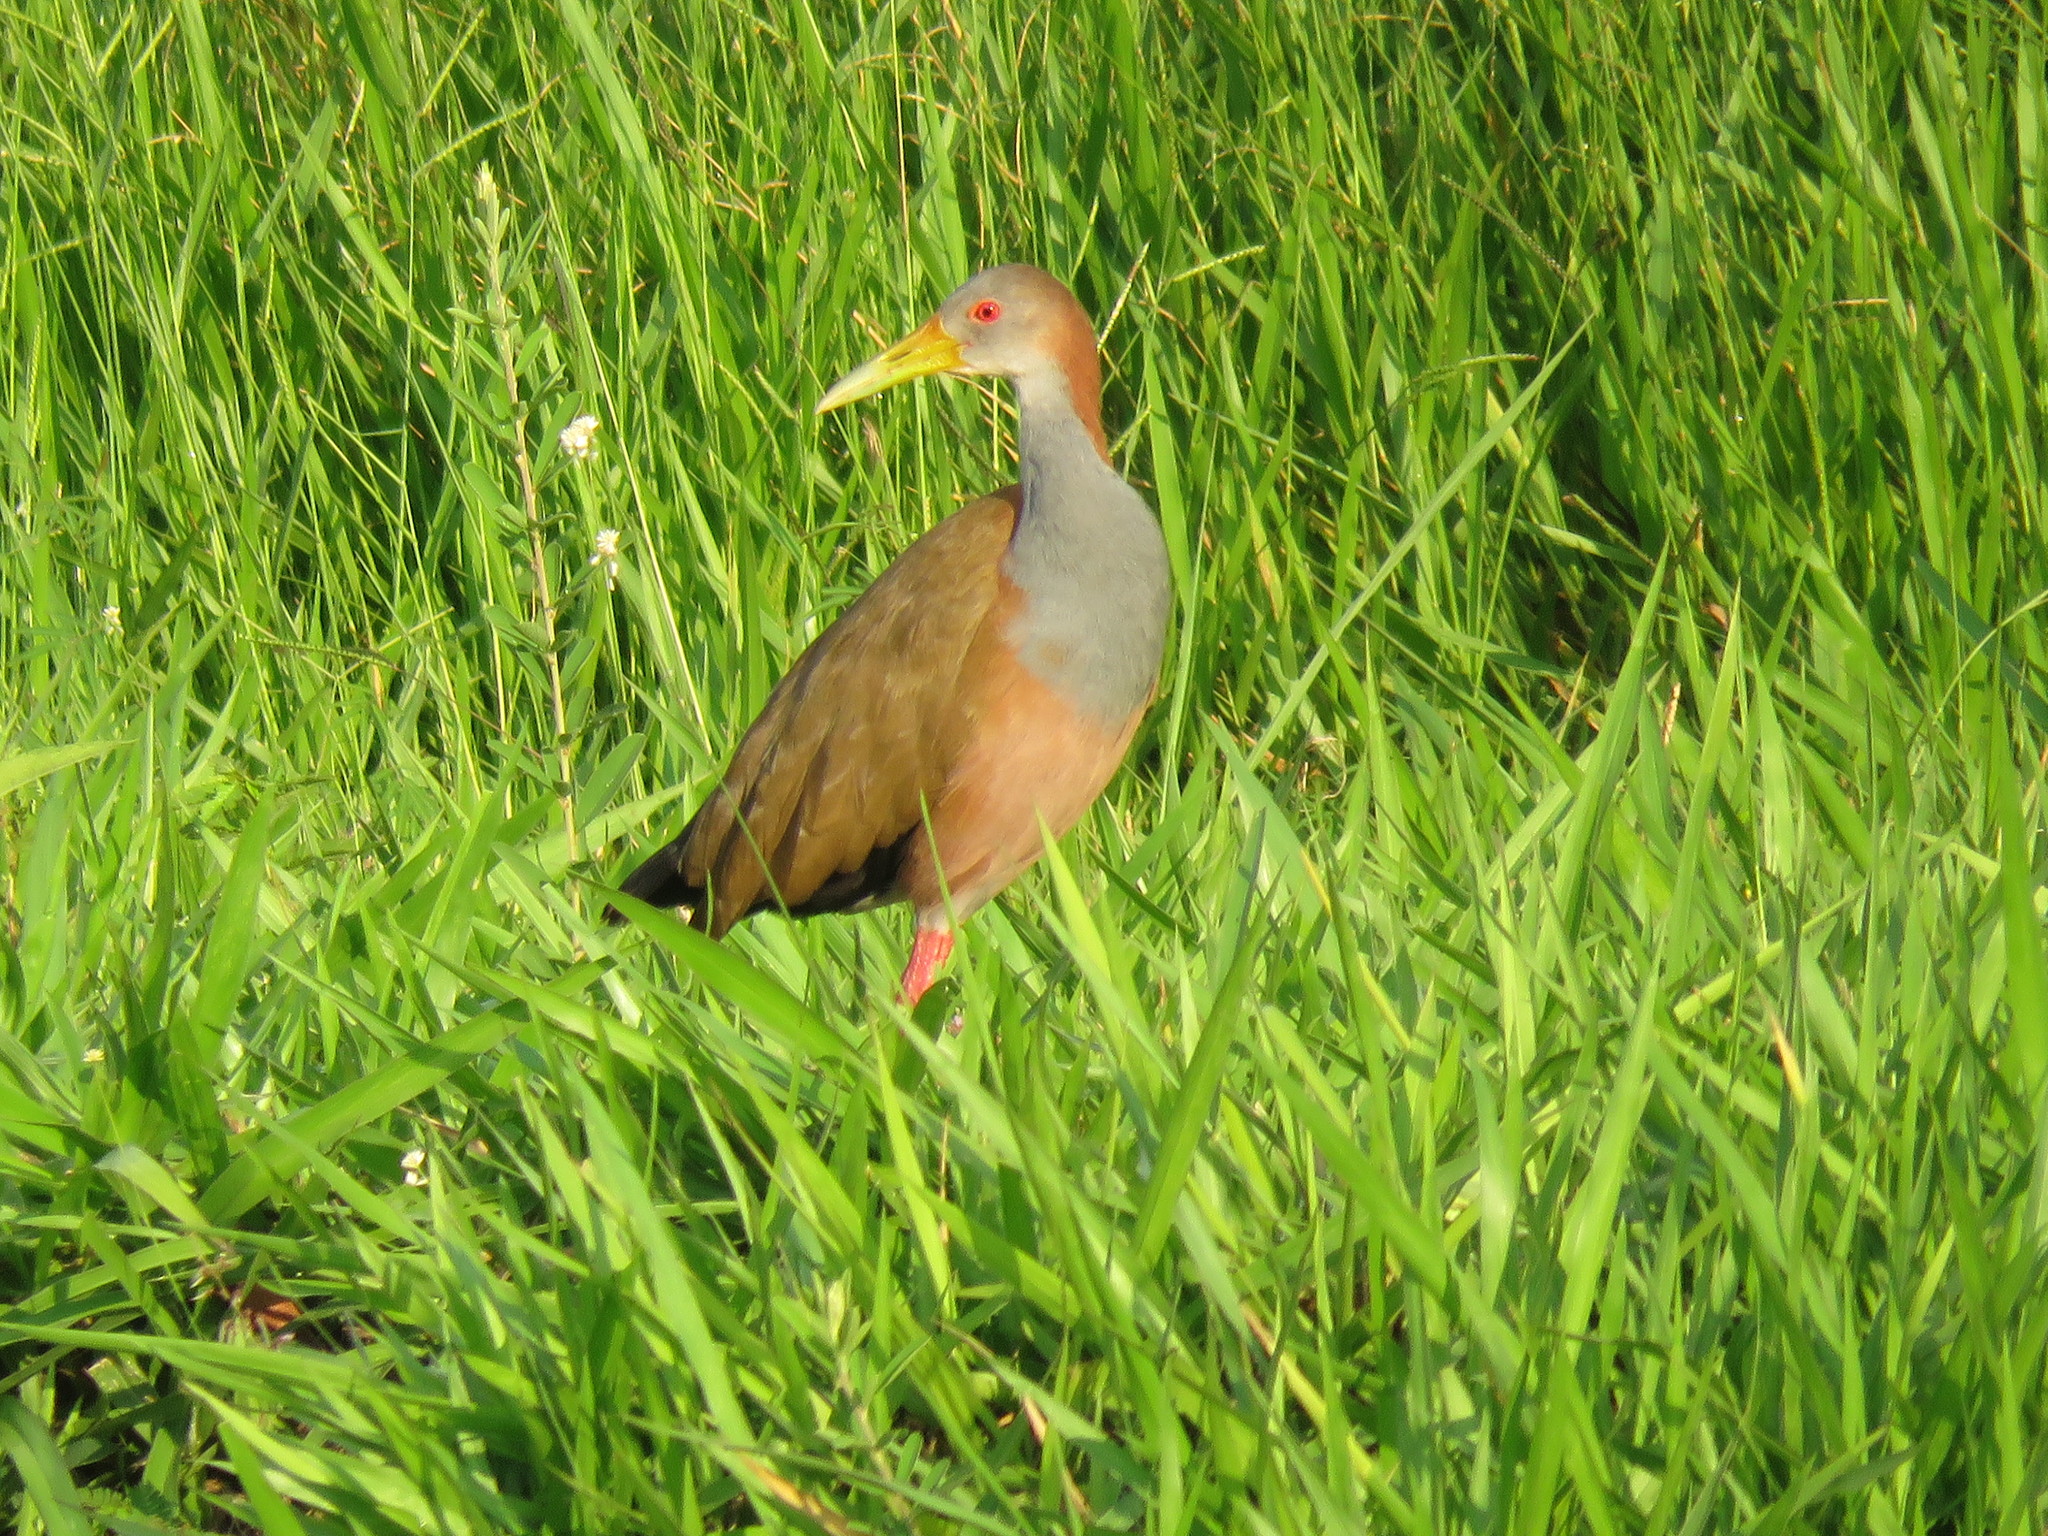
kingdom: Animalia
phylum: Chordata
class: Aves
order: Gruiformes
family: Rallidae
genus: Aramides
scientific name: Aramides ypecaha
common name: Giant wood rail
